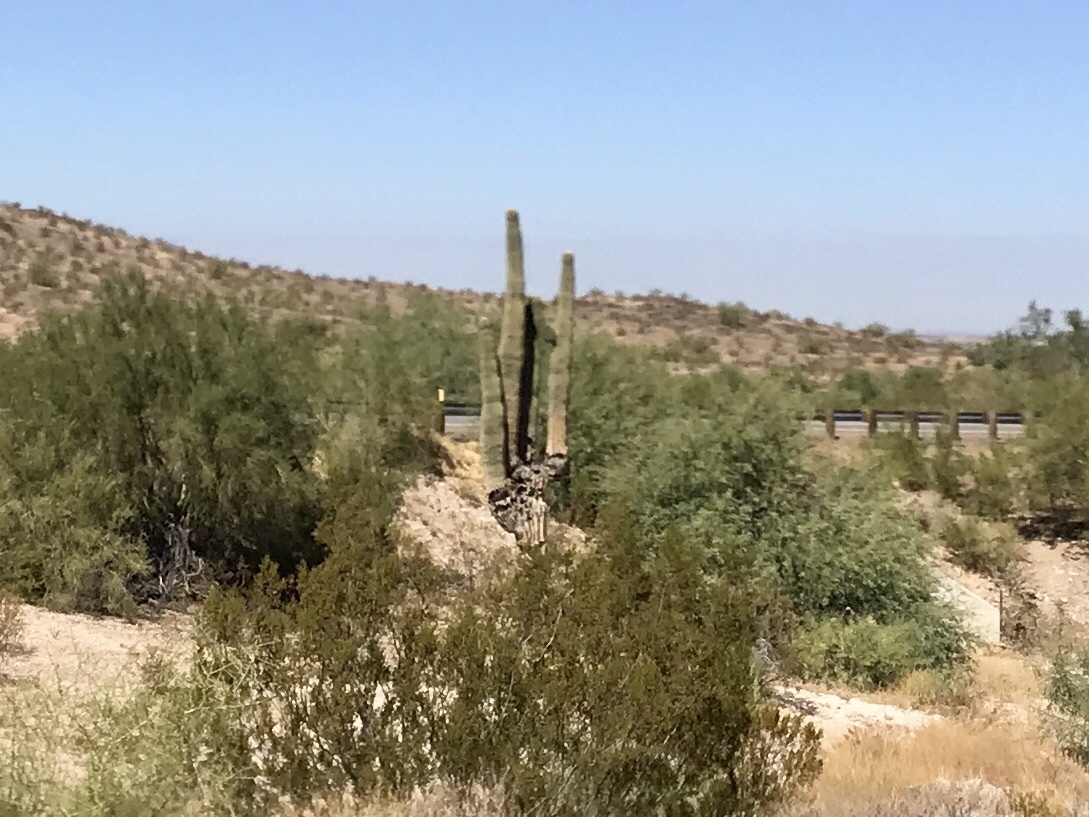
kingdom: Plantae
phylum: Tracheophyta
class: Magnoliopsida
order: Caryophyllales
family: Cactaceae
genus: Carnegiea
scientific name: Carnegiea gigantea
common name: Saguaro
